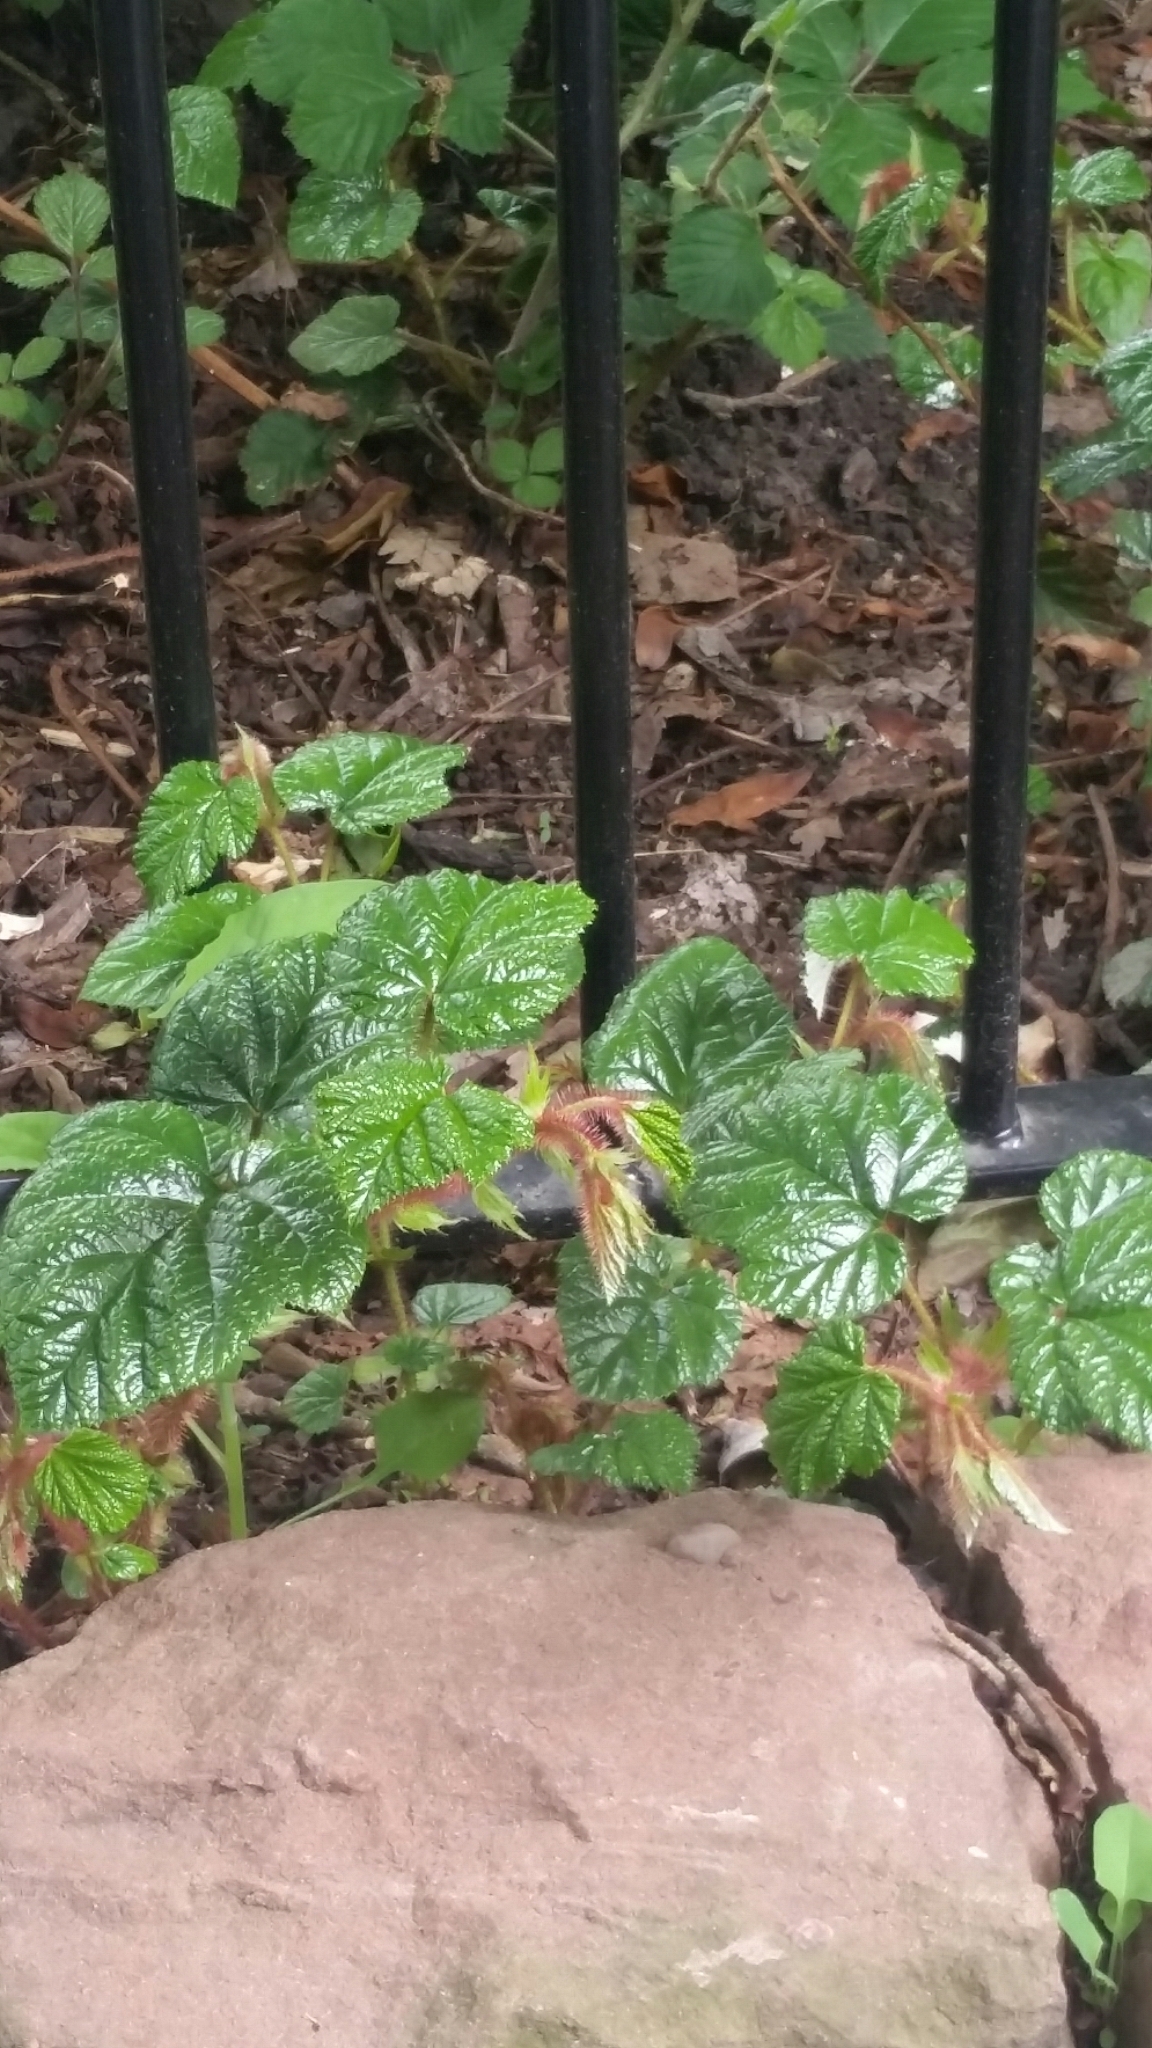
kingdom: Plantae
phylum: Tracheophyta
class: Magnoliopsida
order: Rosales
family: Rosaceae
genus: Rubus
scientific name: Rubus tricolor
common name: Chinese bramble
